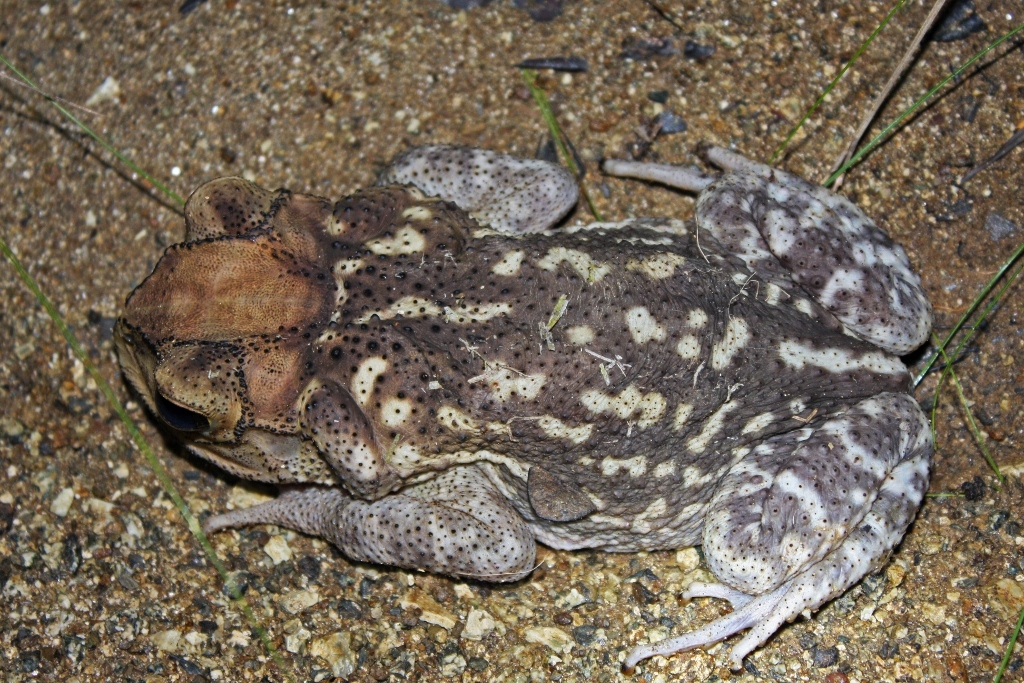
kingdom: Animalia
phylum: Chordata
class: Amphibia
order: Anura
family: Bufonidae
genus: Peltophryne
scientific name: Peltophryne taladai
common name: Cuban spotted toad
